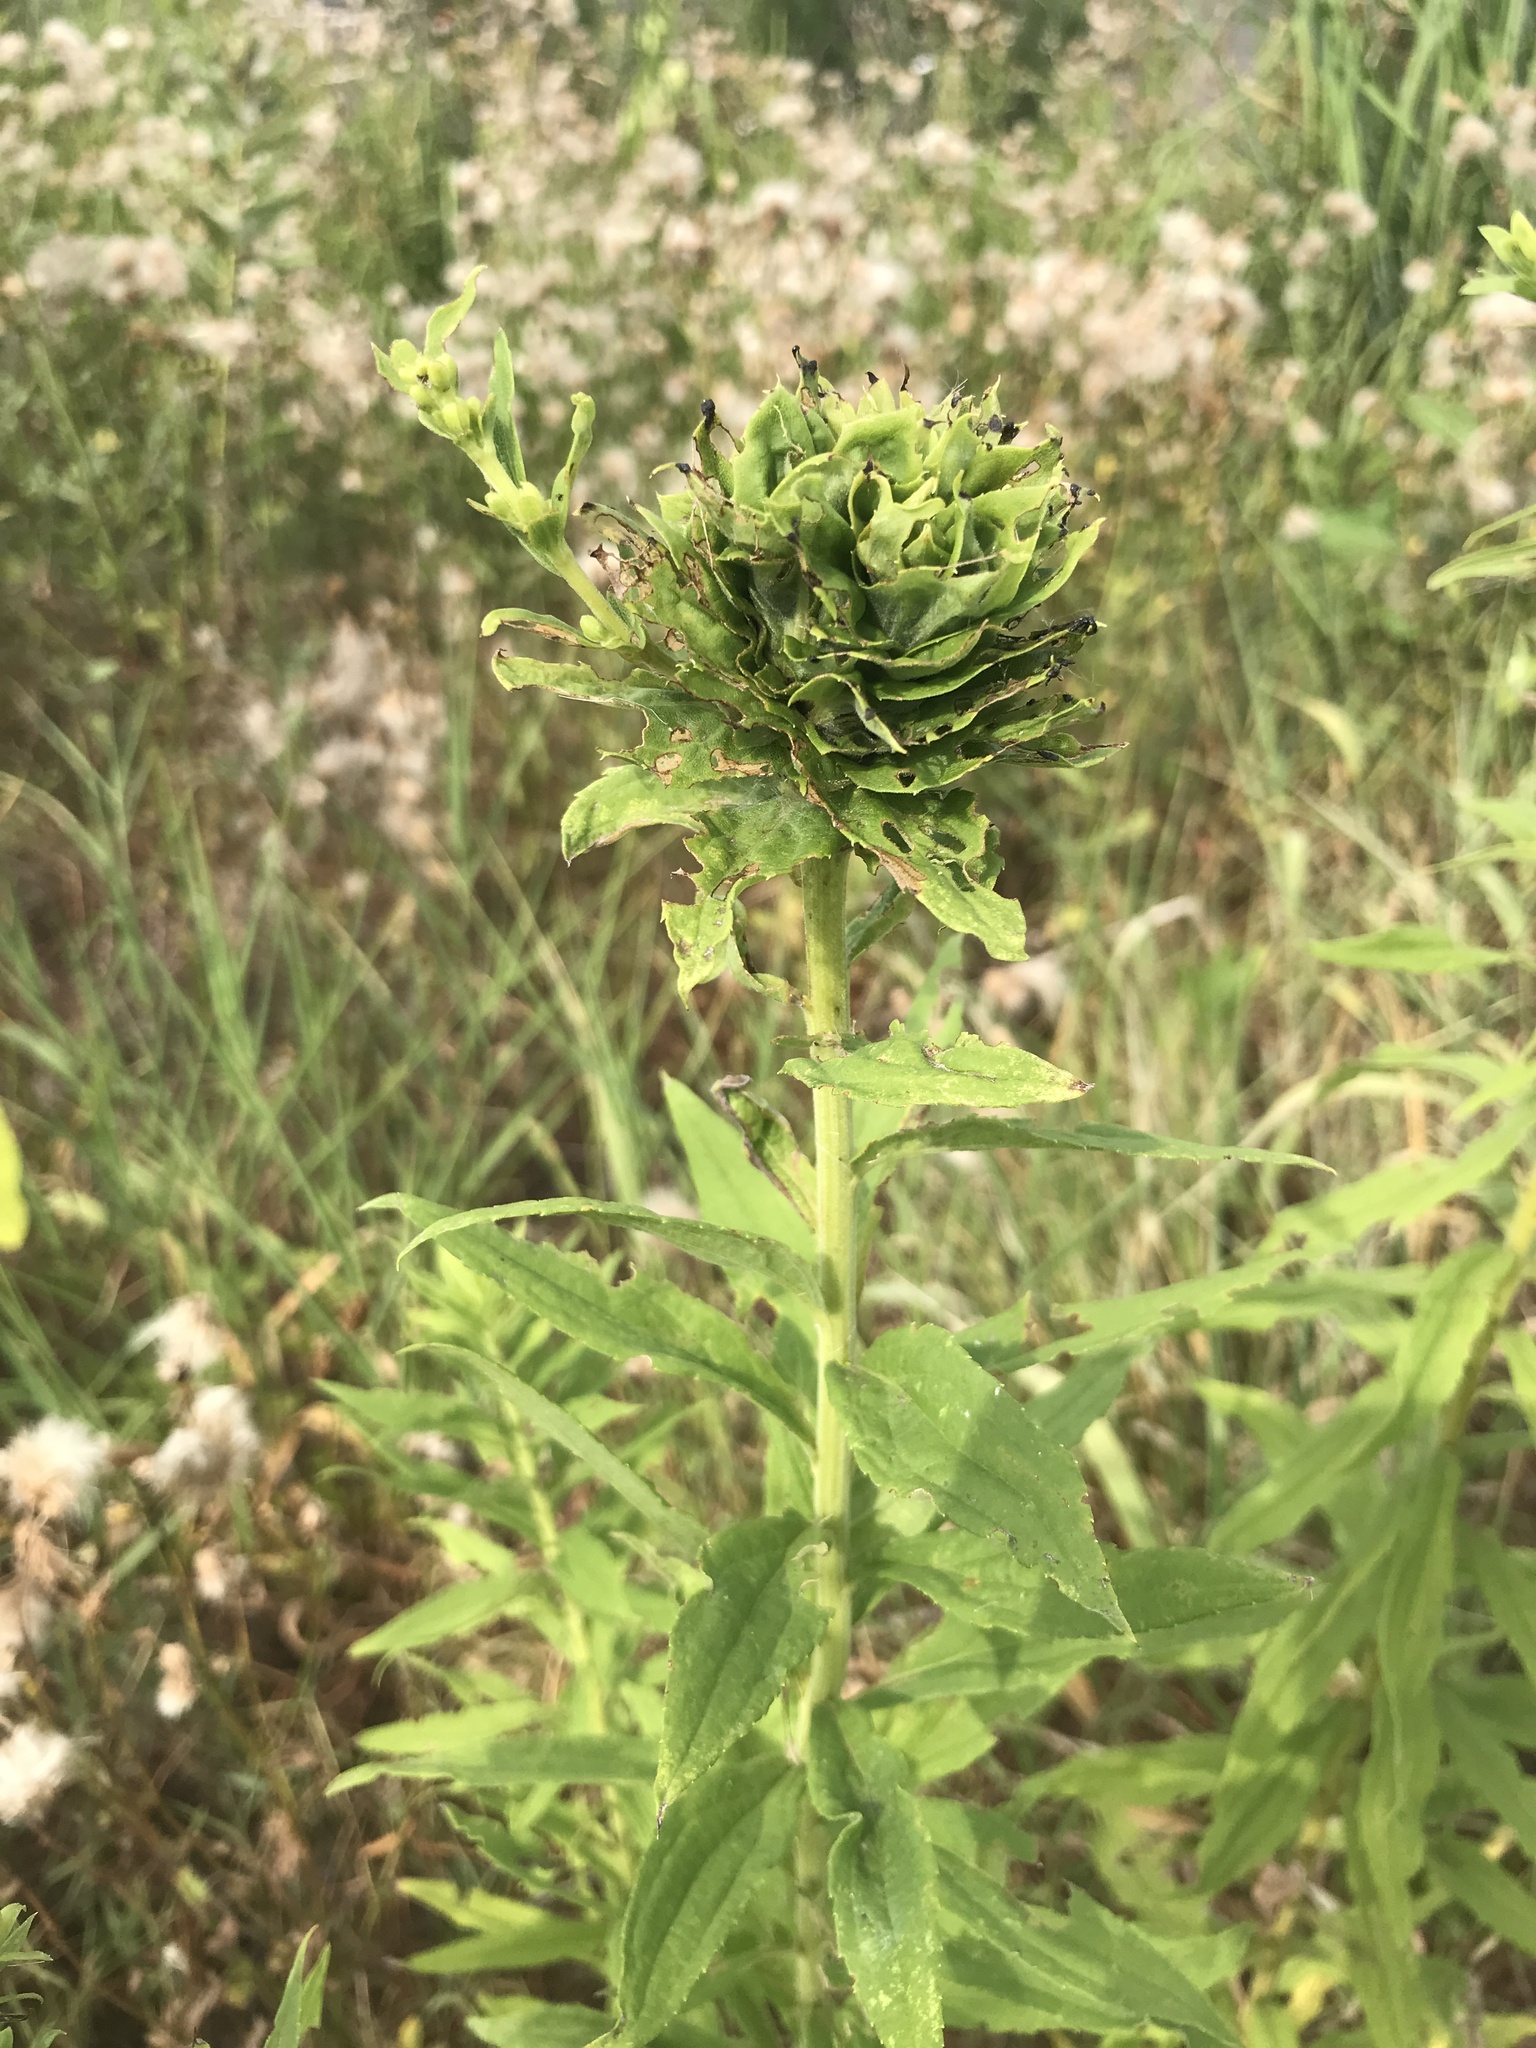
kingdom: Animalia
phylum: Arthropoda
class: Insecta
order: Diptera
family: Cecidomyiidae
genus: Rhopalomyia
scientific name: Rhopalomyia solidaginis
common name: Goldenrod bunch gall midge
